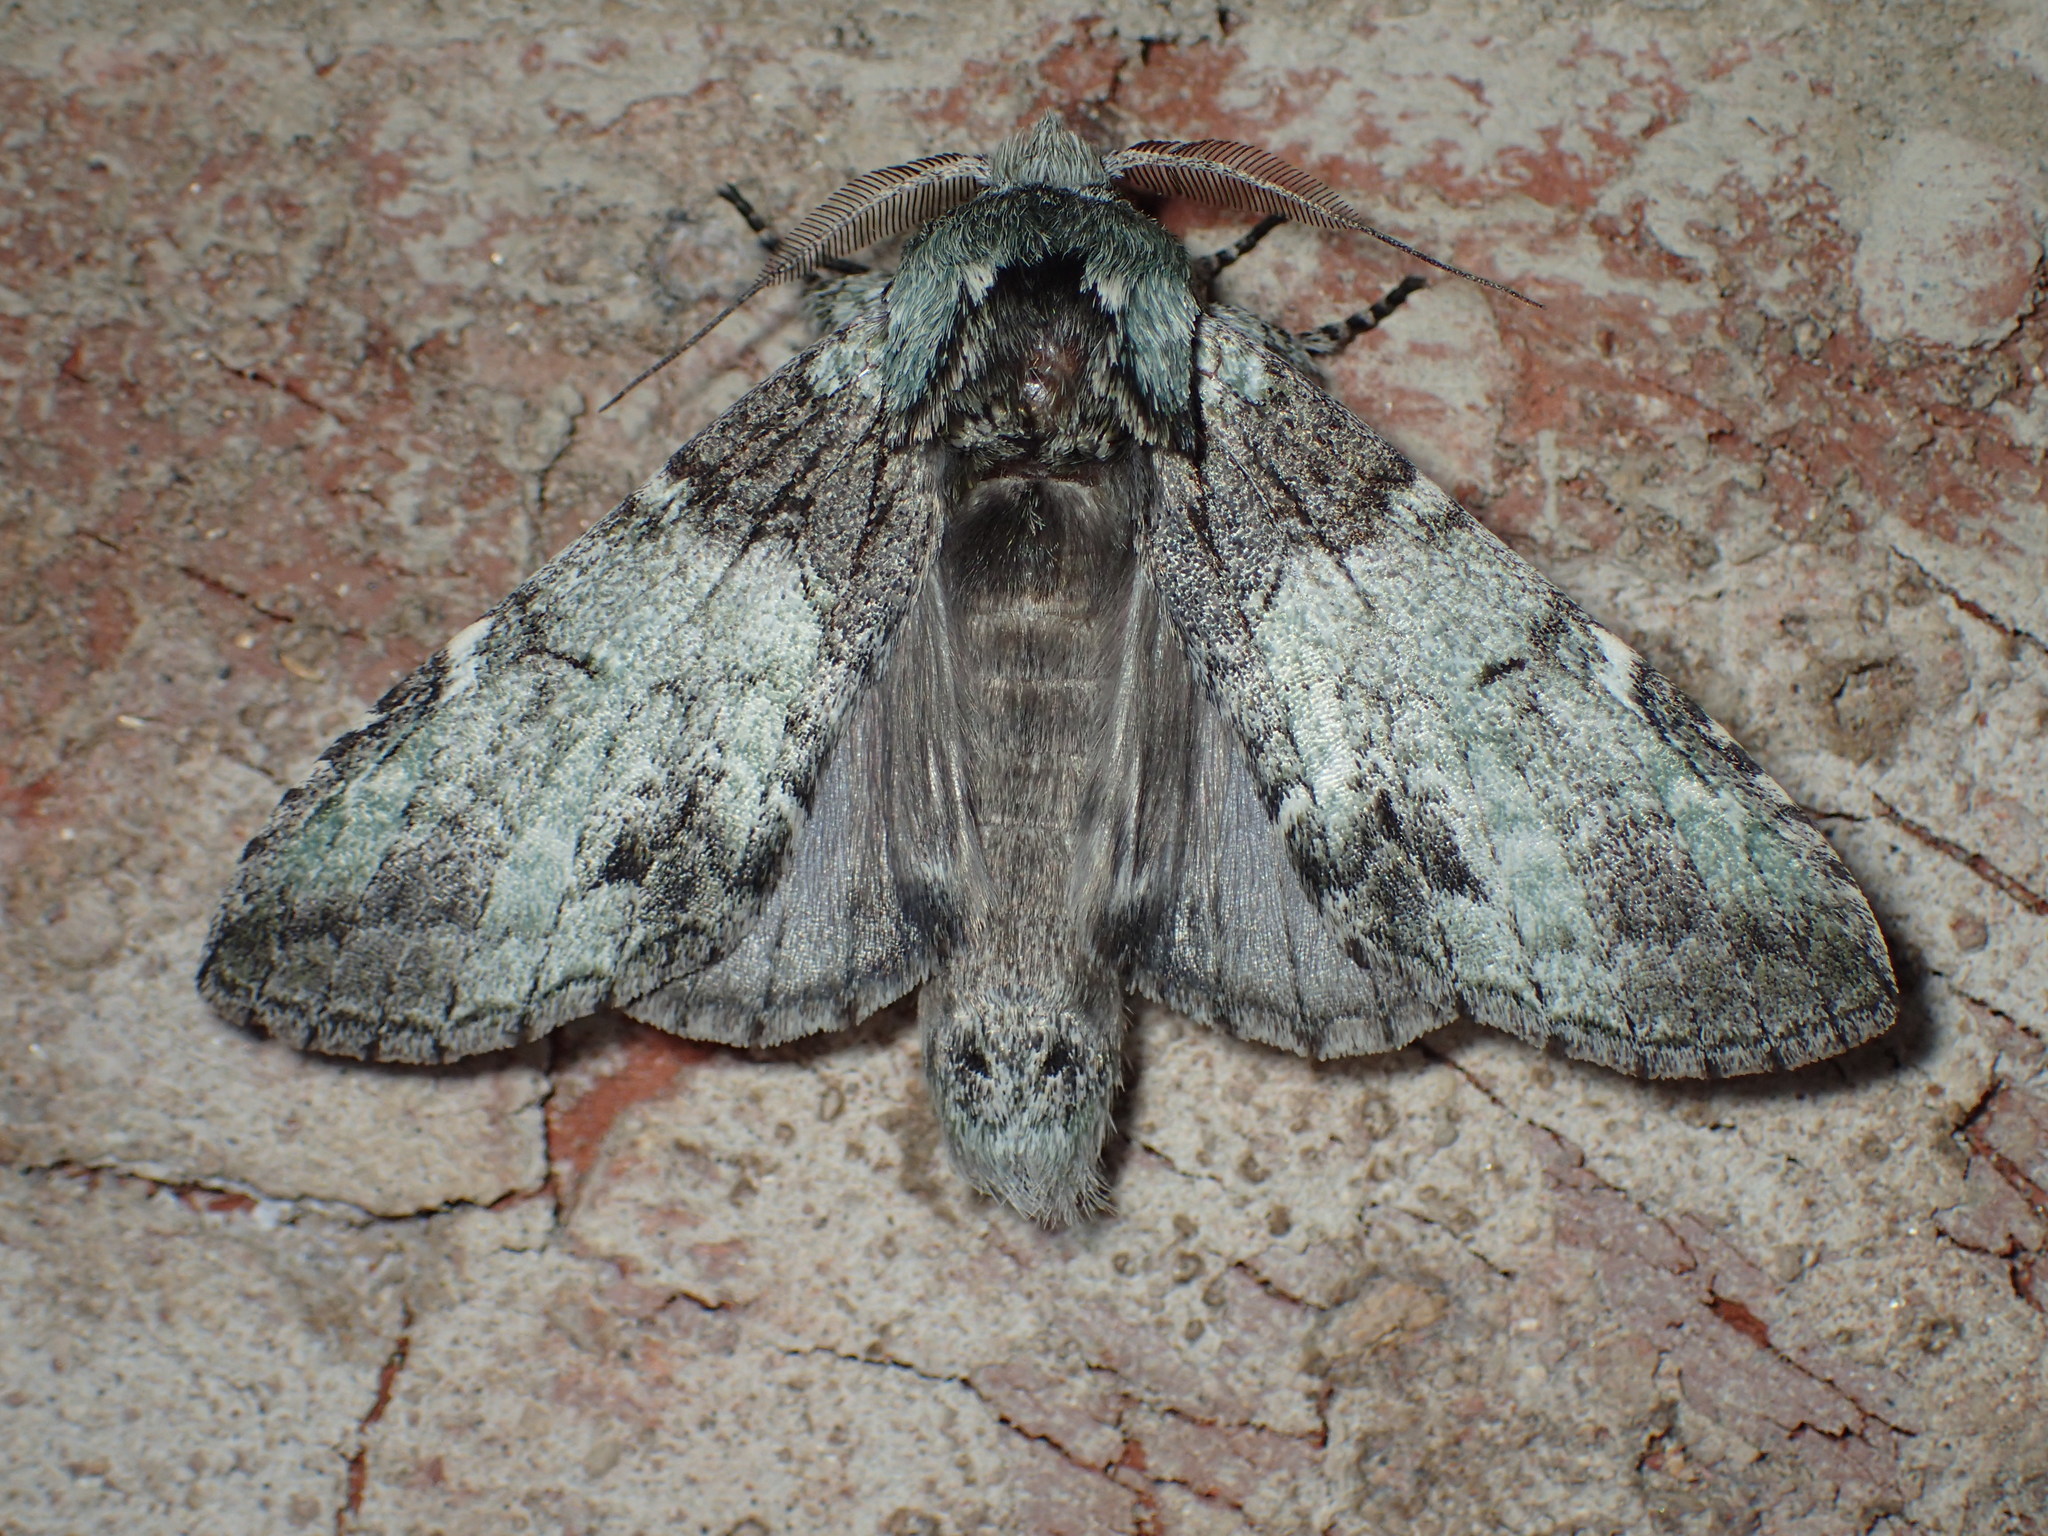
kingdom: Animalia
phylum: Arthropoda
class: Insecta
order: Lepidoptera
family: Notodontidae
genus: Macrurocampa
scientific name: Macrurocampa marthesia
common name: Mottled prominent
